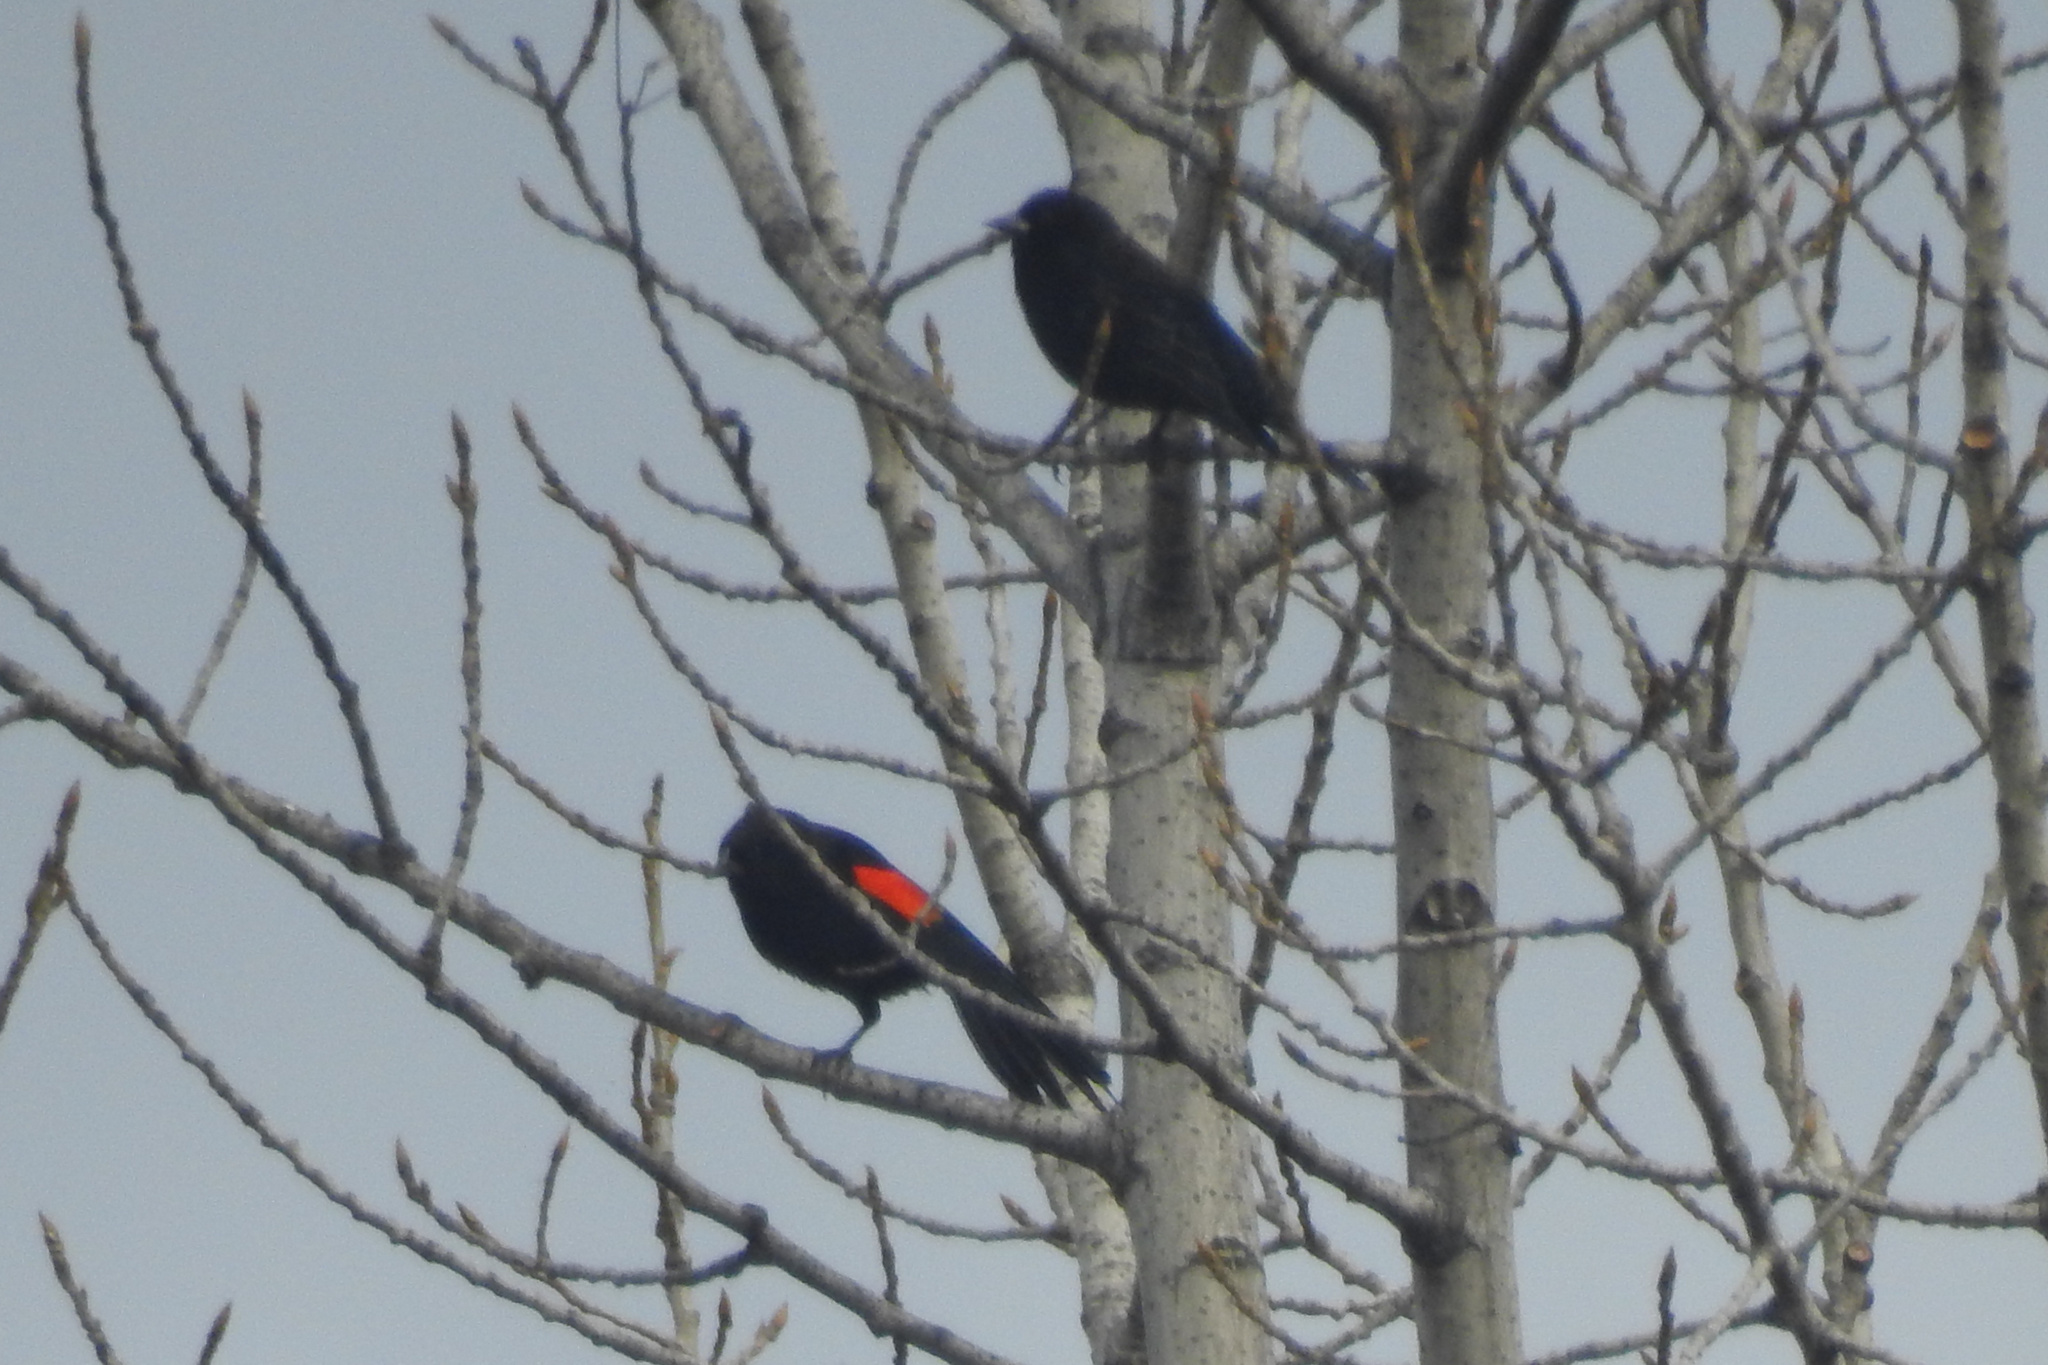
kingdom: Animalia
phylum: Chordata
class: Aves
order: Passeriformes
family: Icteridae
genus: Agelaius
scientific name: Agelaius phoeniceus
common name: Red-winged blackbird
